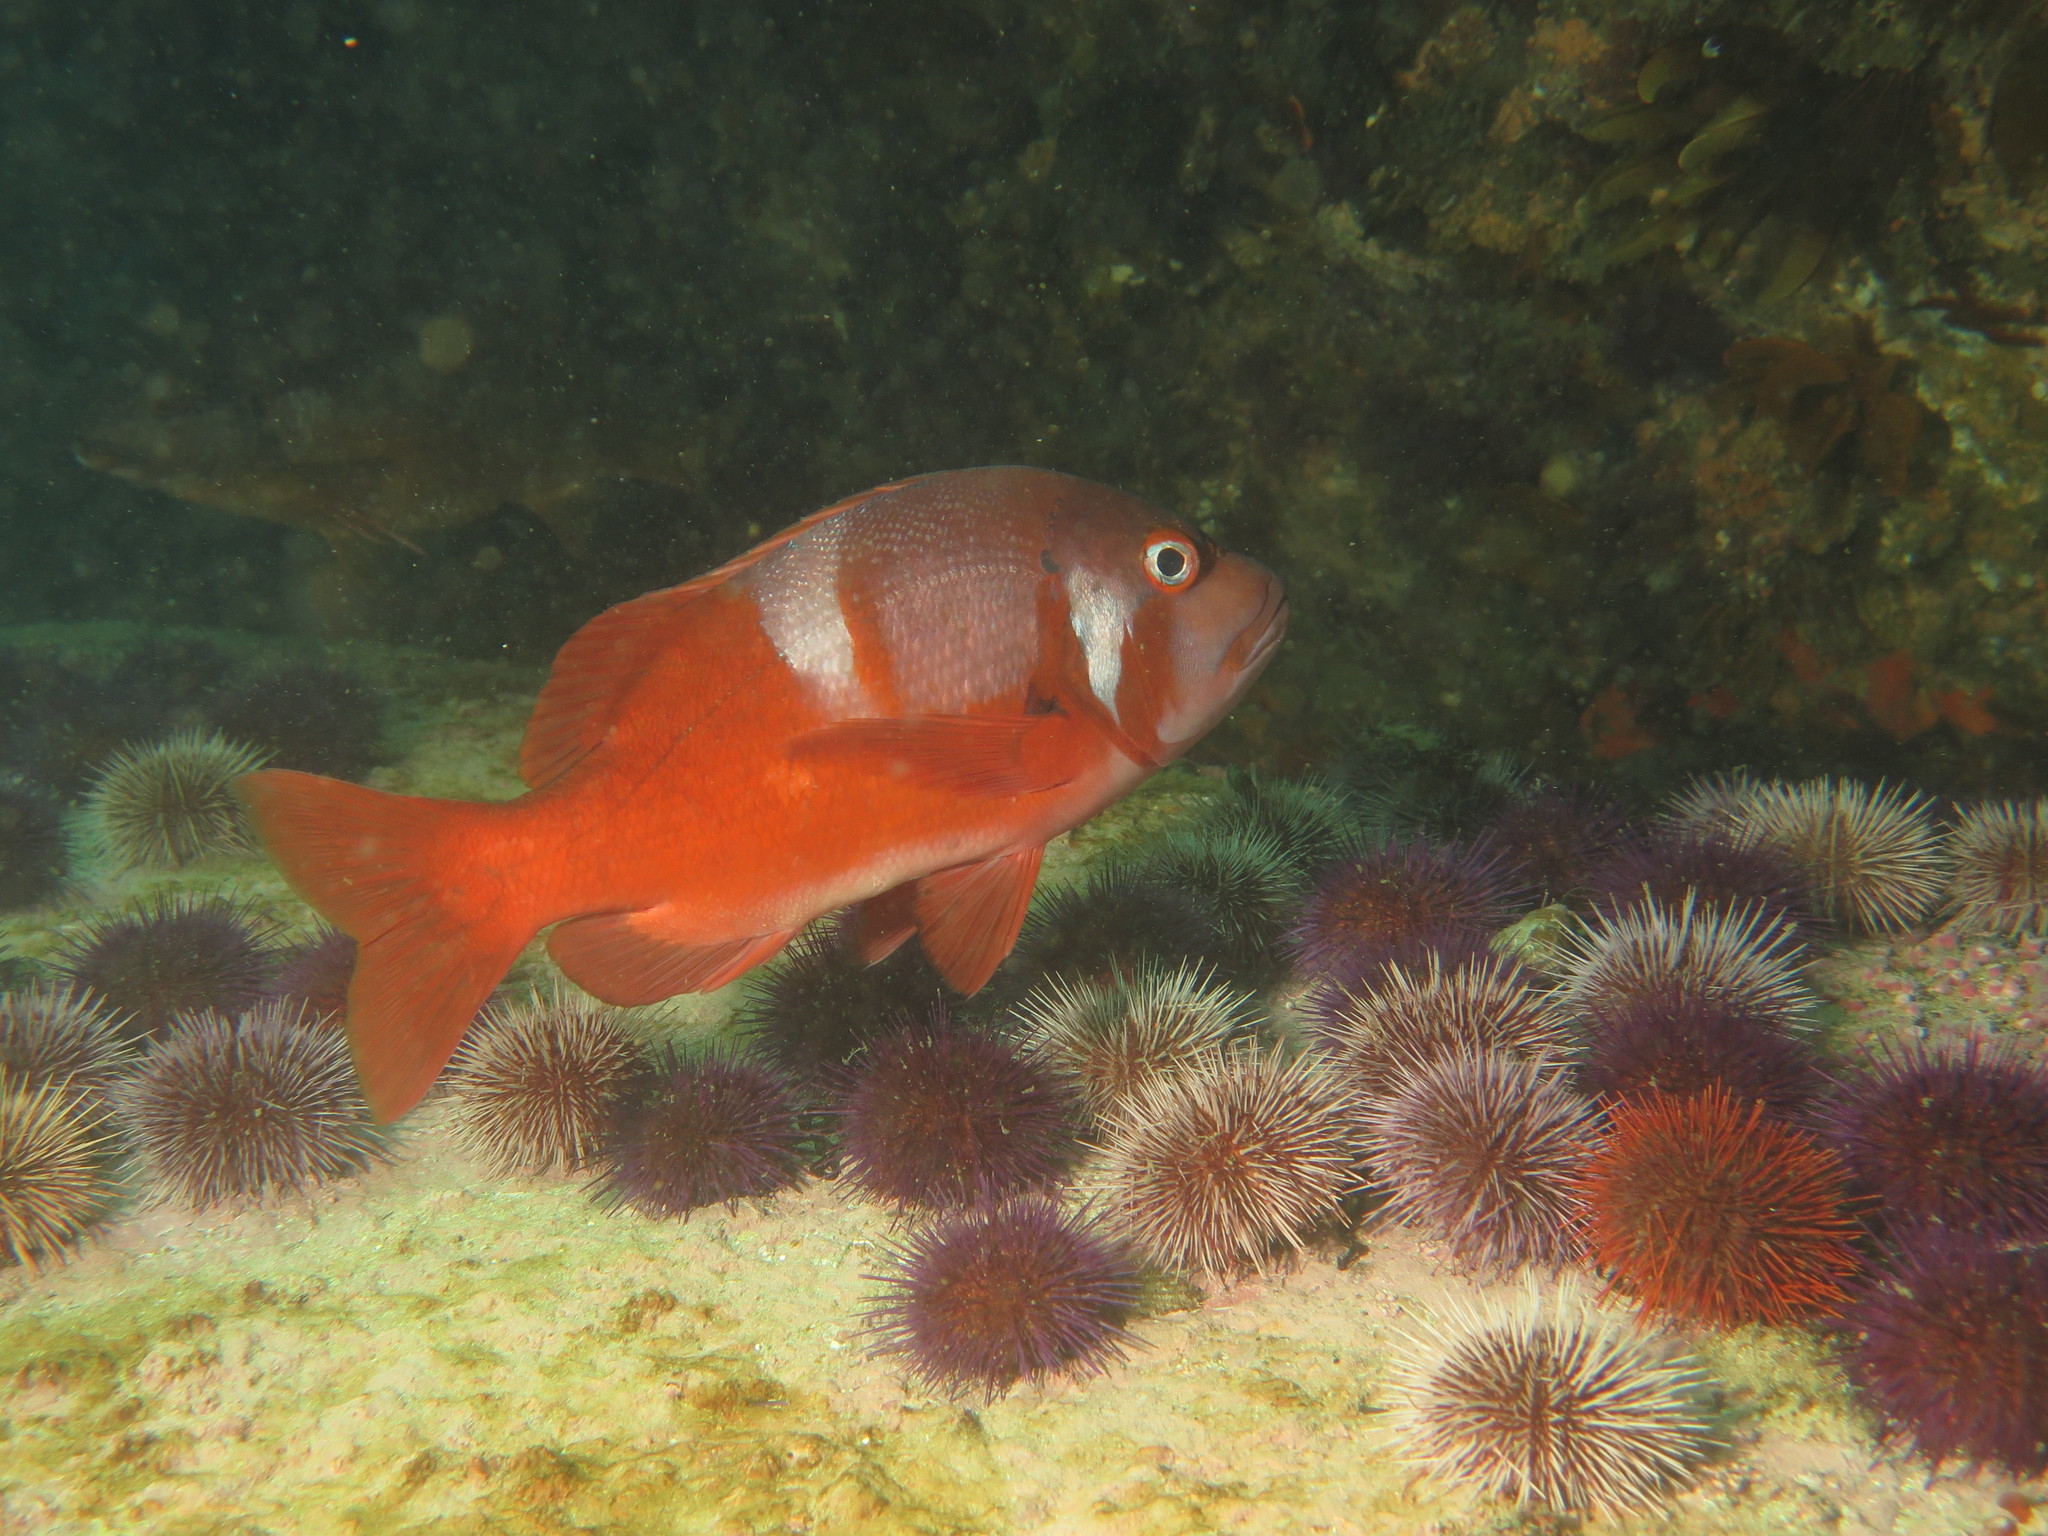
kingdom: Animalia
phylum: Chordata
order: Perciformes
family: Sparidae
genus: Chrysoblephus
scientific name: Chrysoblephus laticeps
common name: Roman seabream
